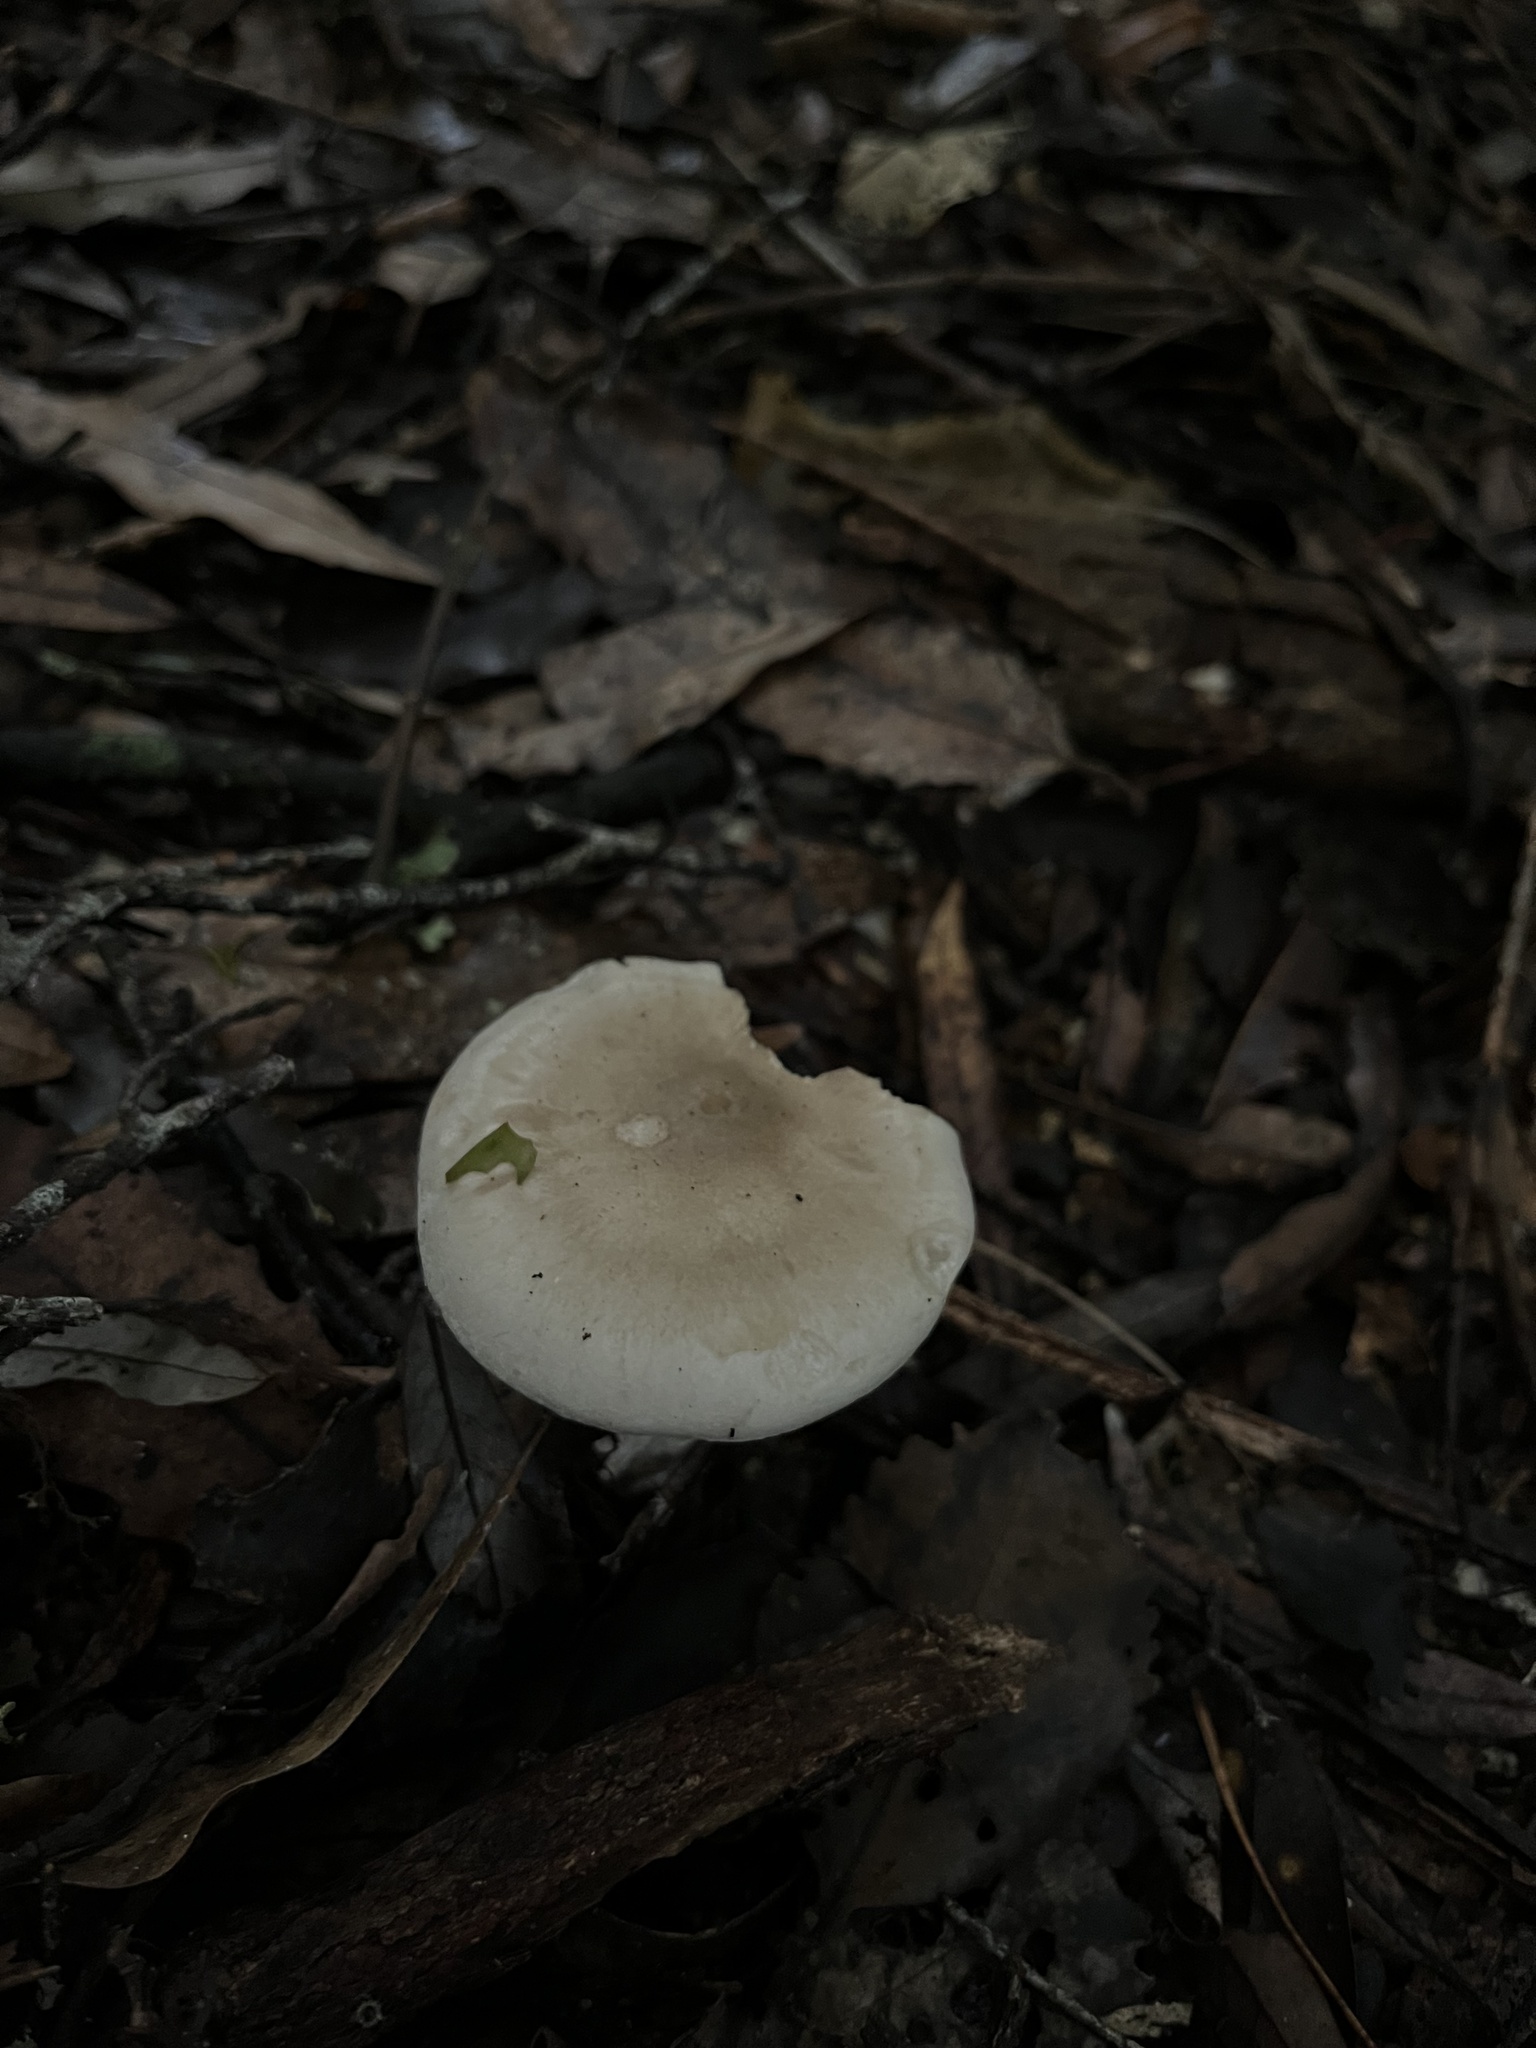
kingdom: Fungi
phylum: Basidiomycota
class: Agaricomycetes
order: Agaricales
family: Tricholomataceae
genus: Clitocybe
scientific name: Clitocybe nebularis
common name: Clouded agaric
